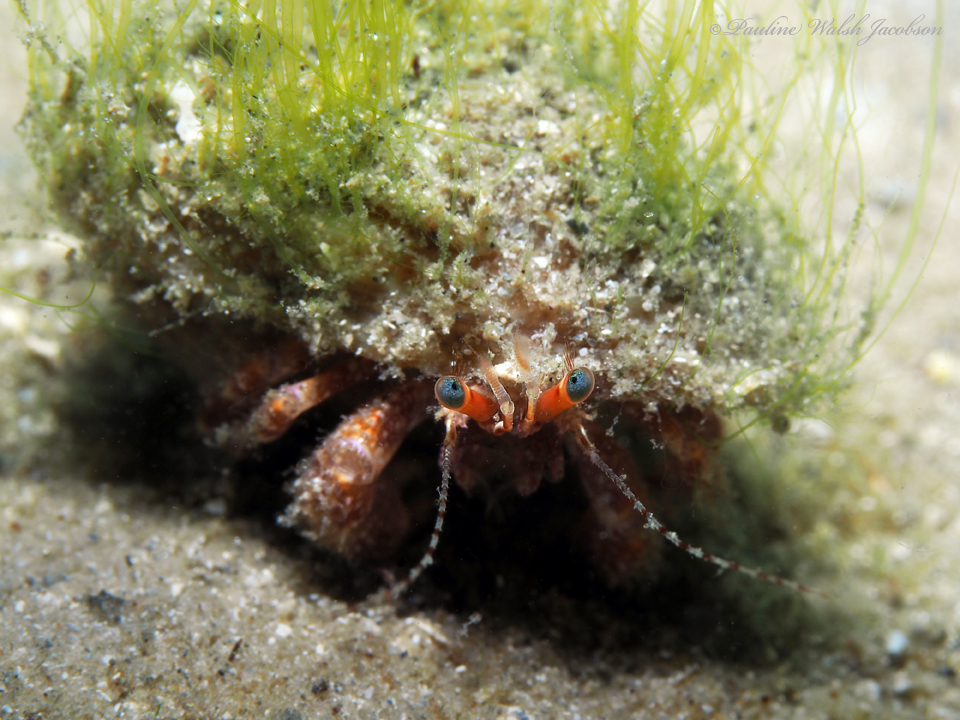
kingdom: Animalia
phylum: Arthropoda
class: Malacostraca
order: Decapoda
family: Diogenidae
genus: Petrochirus
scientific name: Petrochirus diogenes
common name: Giant hermit crab
